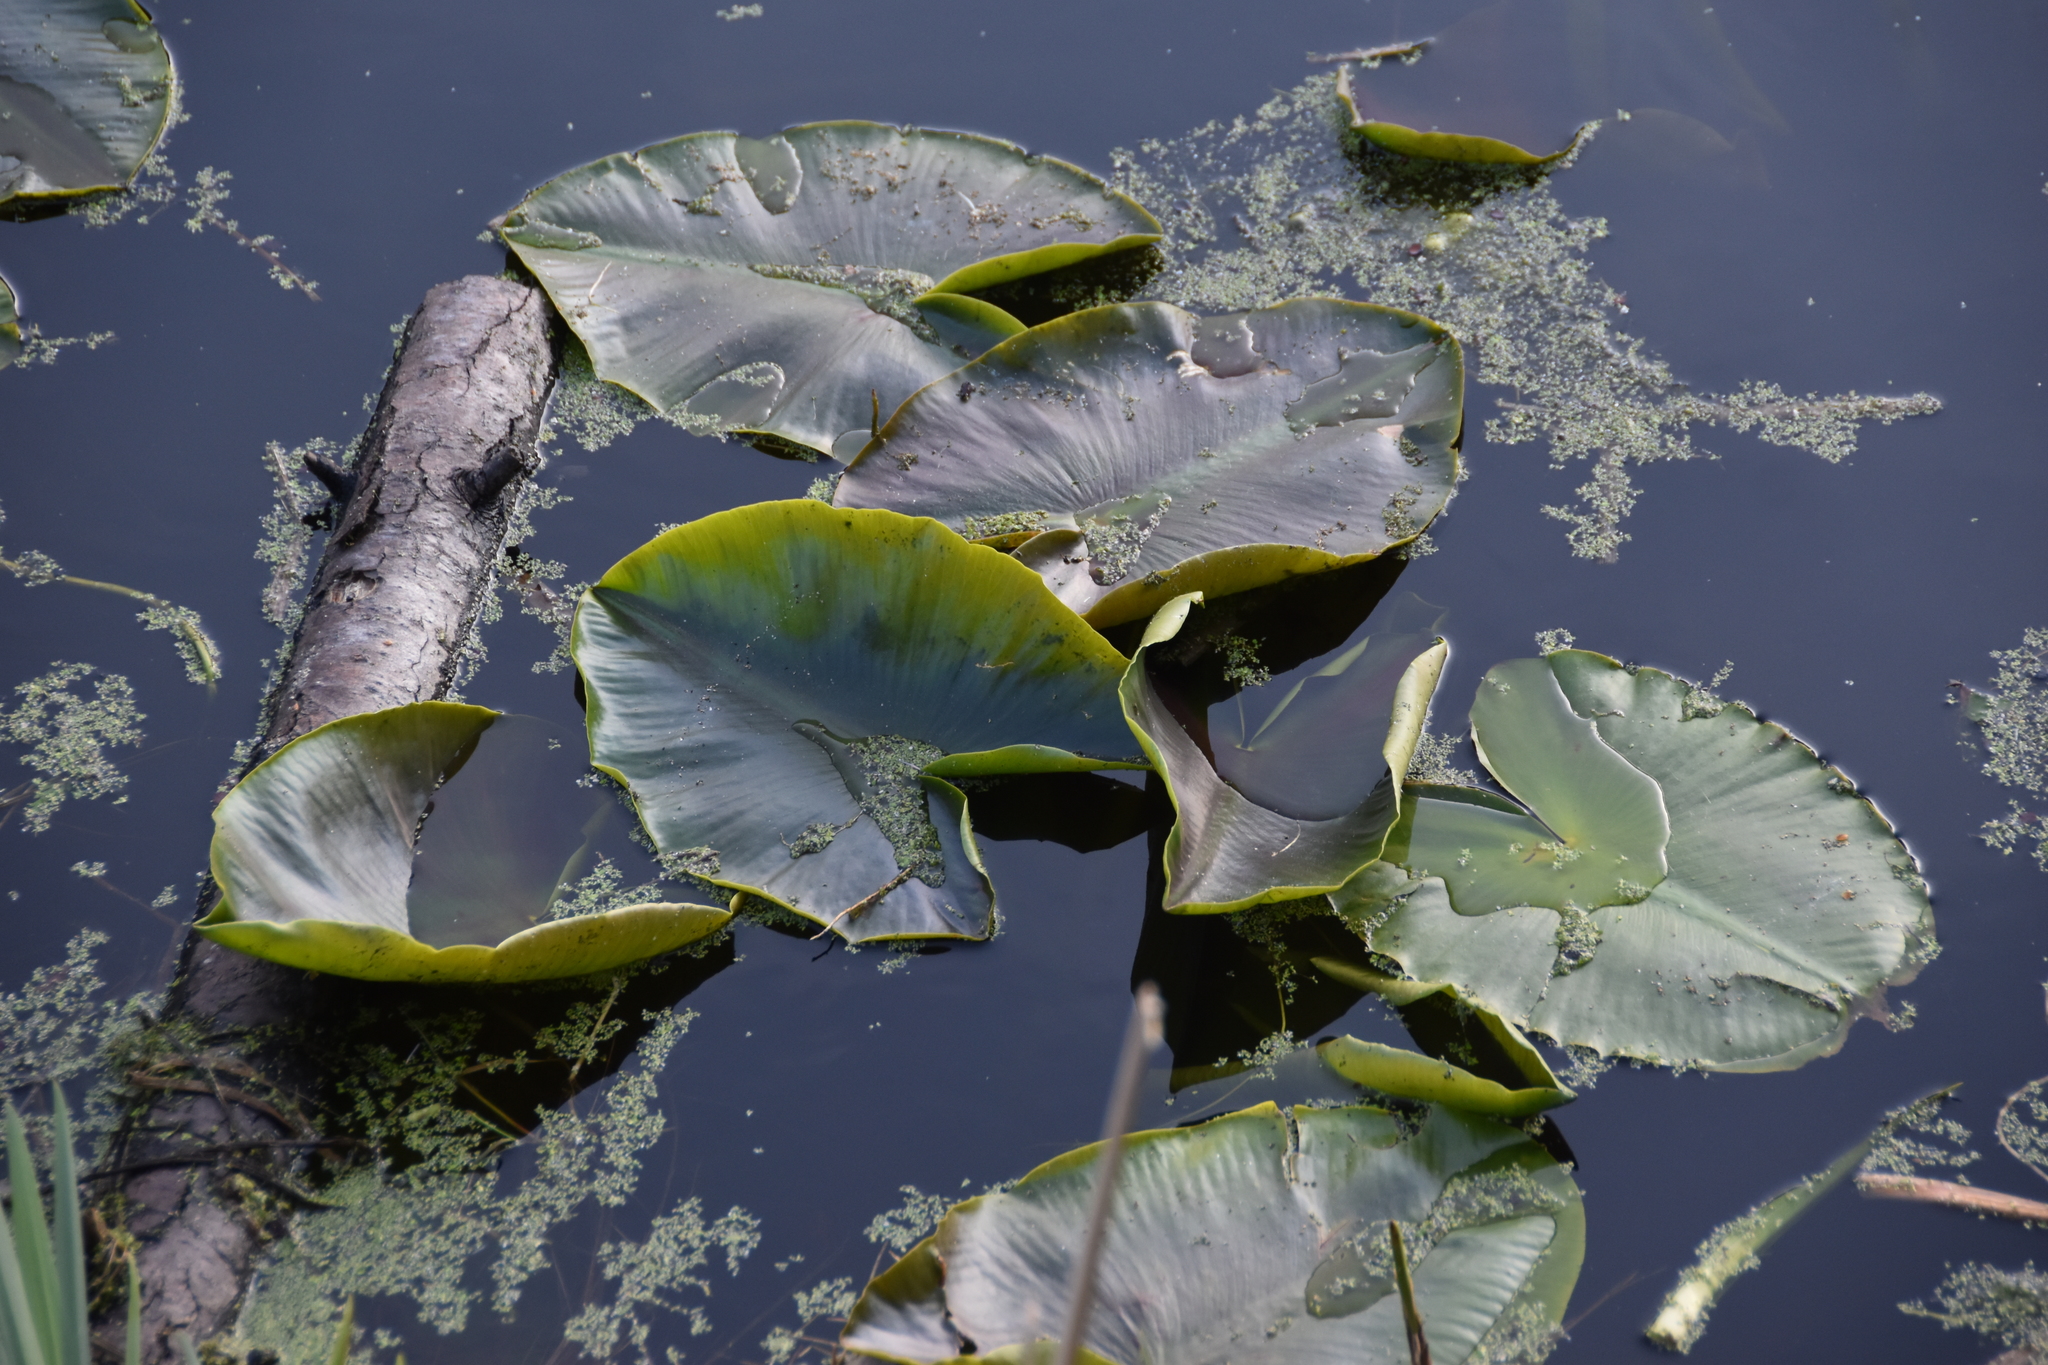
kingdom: Plantae
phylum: Tracheophyta
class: Magnoliopsida
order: Nymphaeales
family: Nymphaeaceae
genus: Nuphar
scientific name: Nuphar polysepala
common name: Rocky mountain cow-lily
